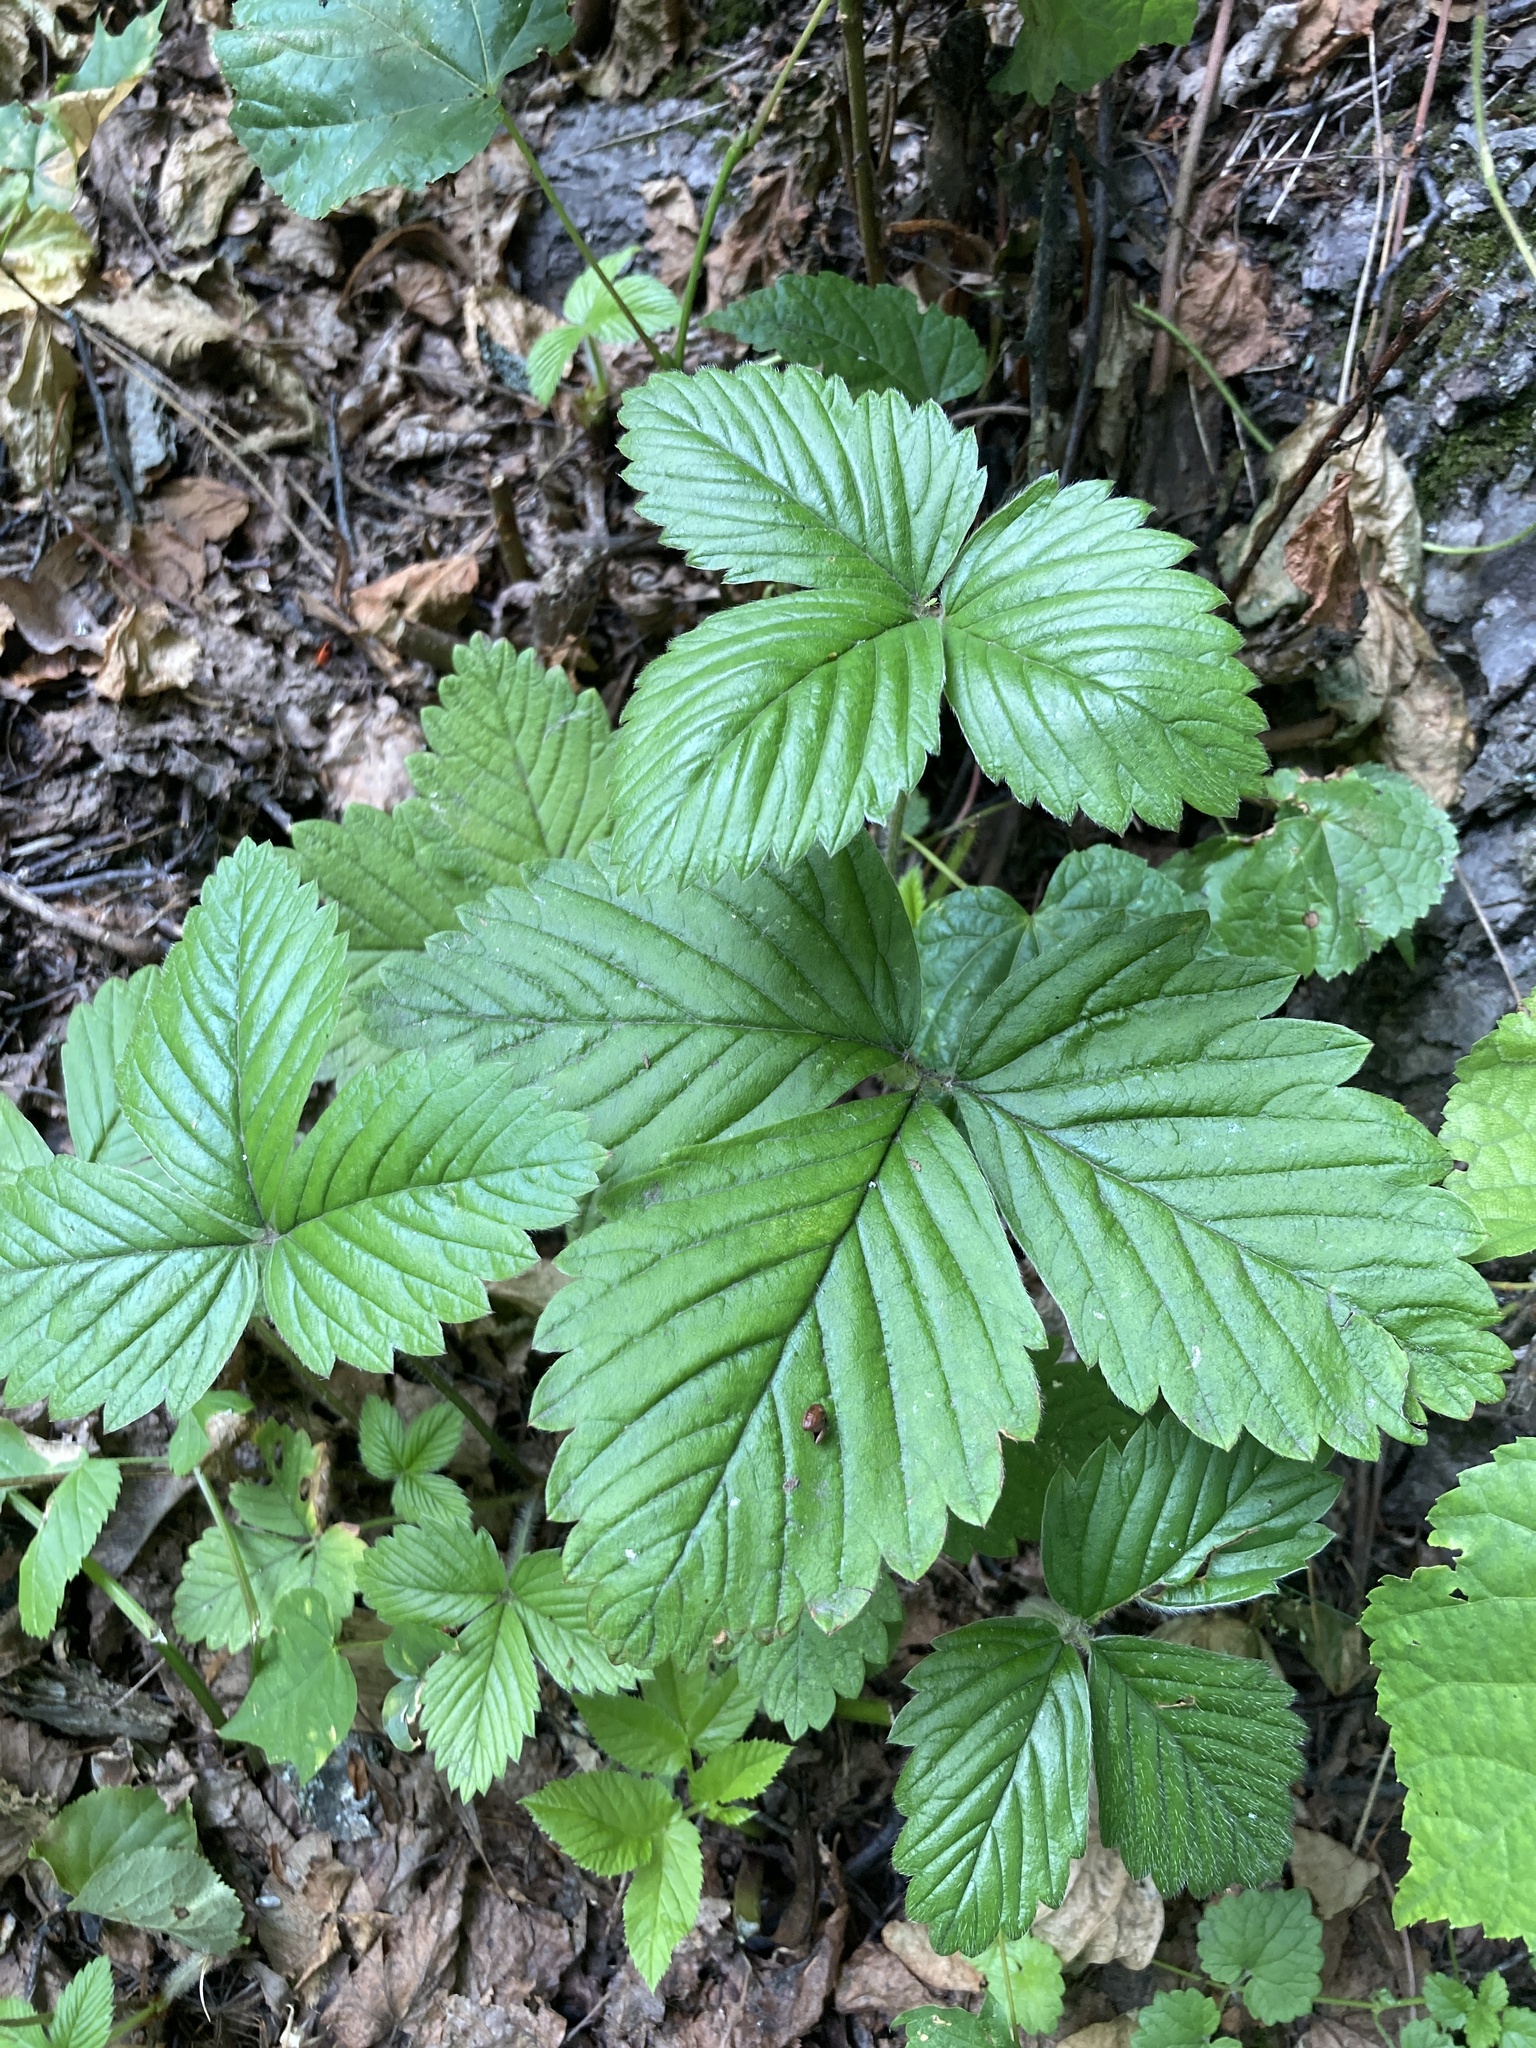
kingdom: Plantae
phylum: Tracheophyta
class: Magnoliopsida
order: Rosales
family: Rosaceae
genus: Fragaria
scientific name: Fragaria moschata
